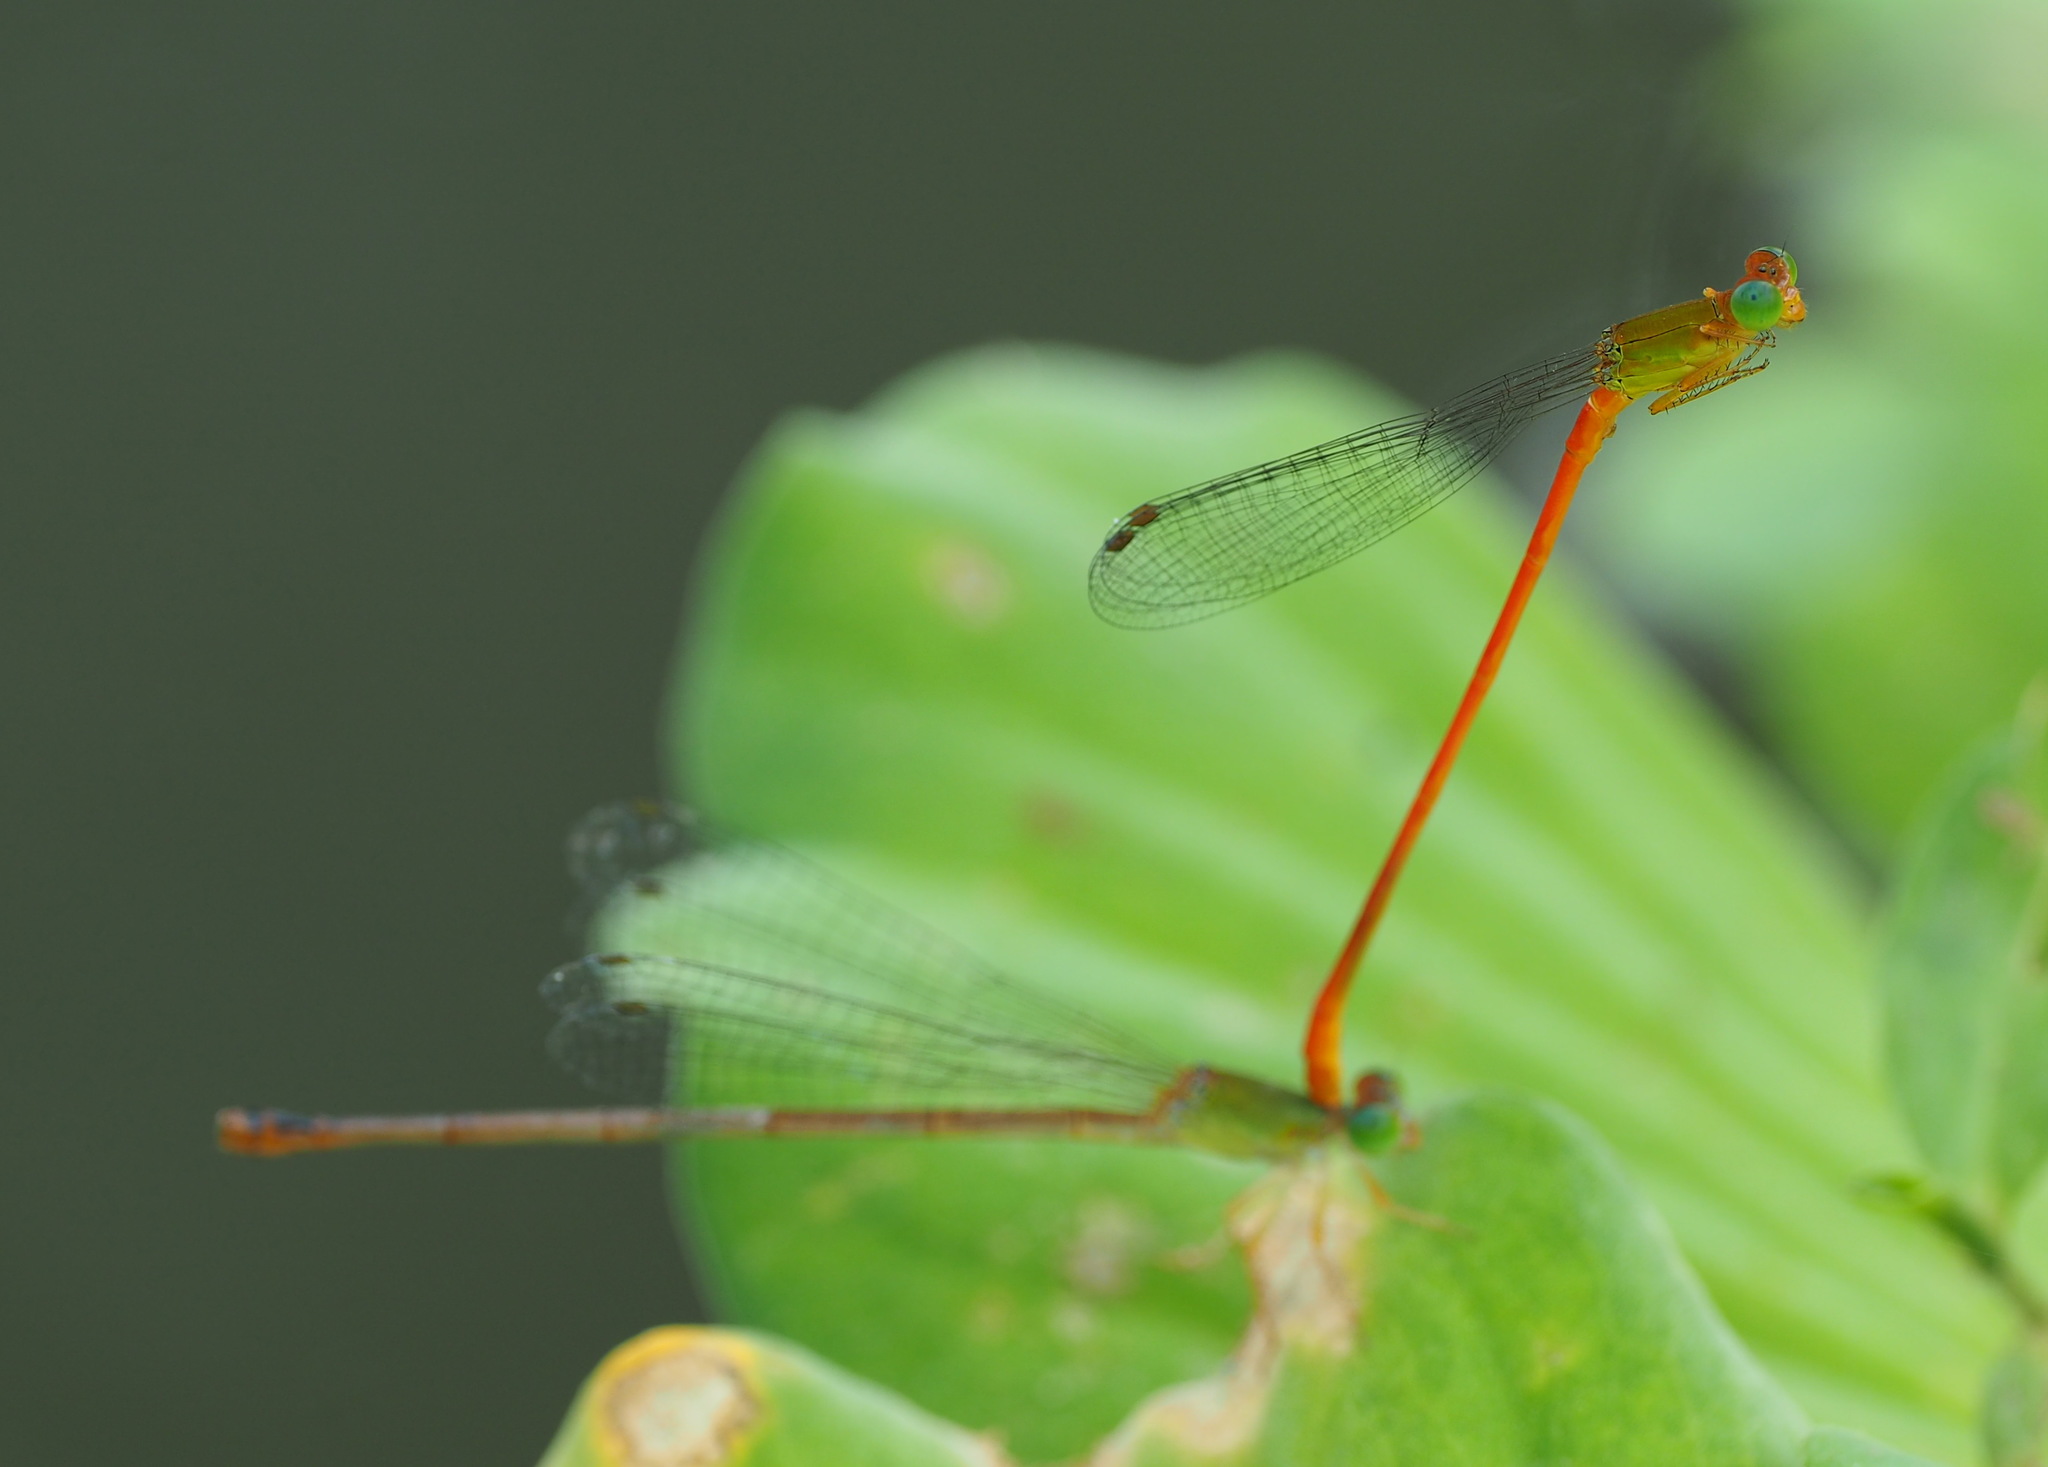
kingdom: Animalia
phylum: Arthropoda
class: Insecta
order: Odonata
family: Coenagrionidae
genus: Ceriagrion
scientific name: Ceriagrion auranticum
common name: Orange-tailed sprite
